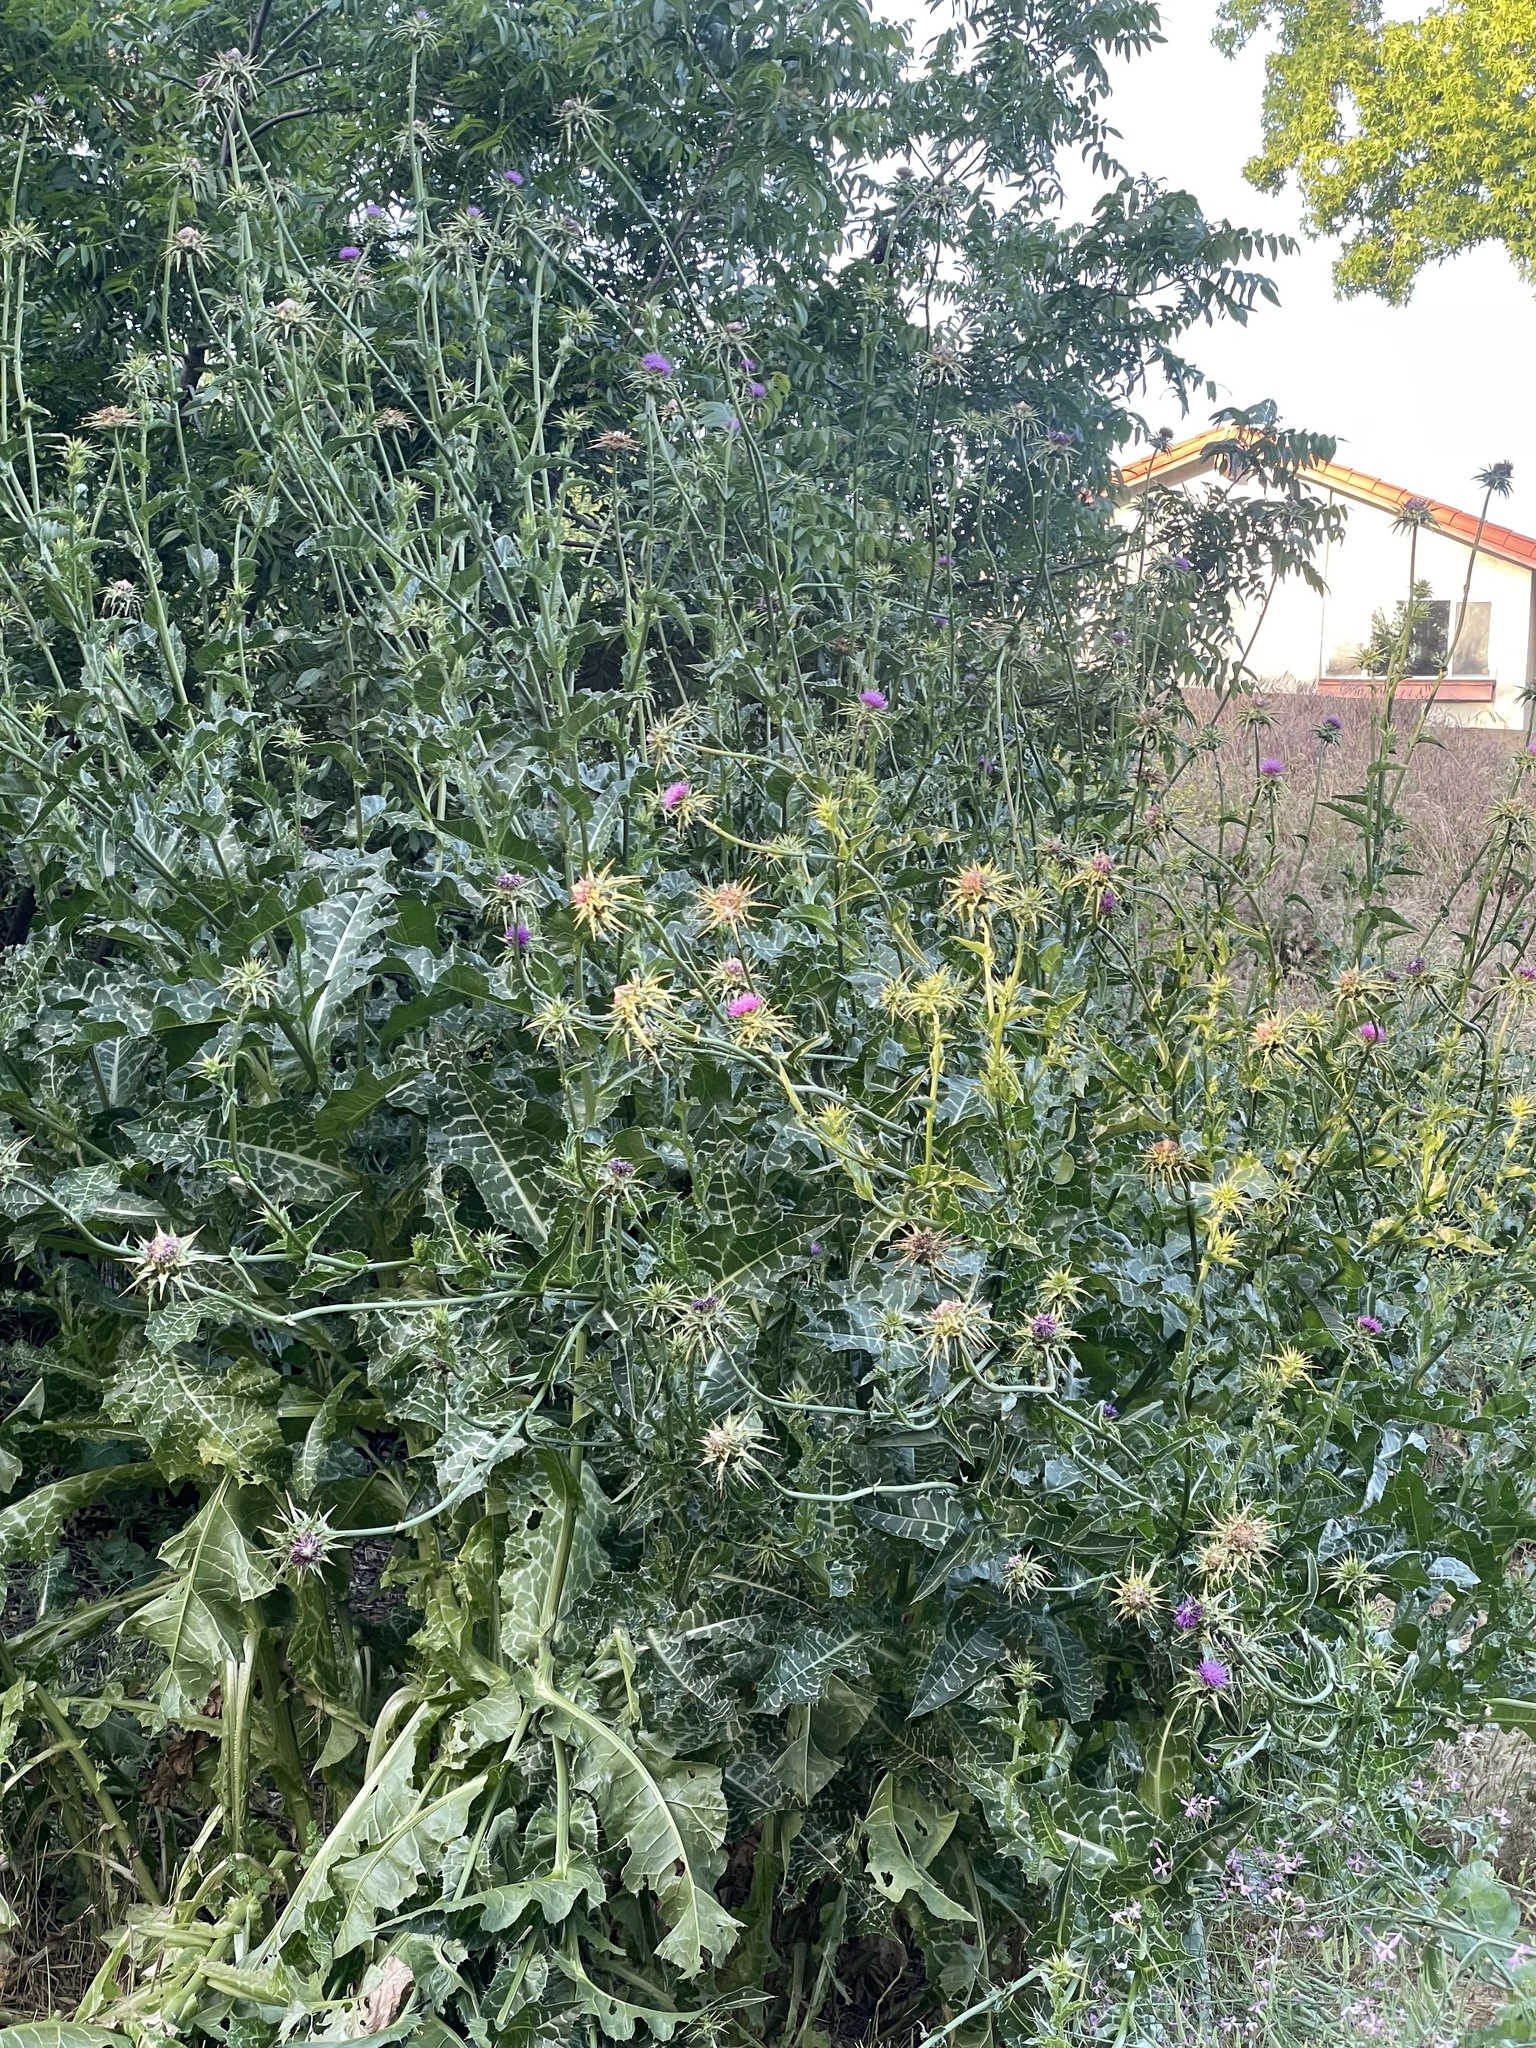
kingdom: Plantae
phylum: Tracheophyta
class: Magnoliopsida
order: Asterales
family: Asteraceae
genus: Silybum
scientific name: Silybum marianum
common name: Milk thistle
